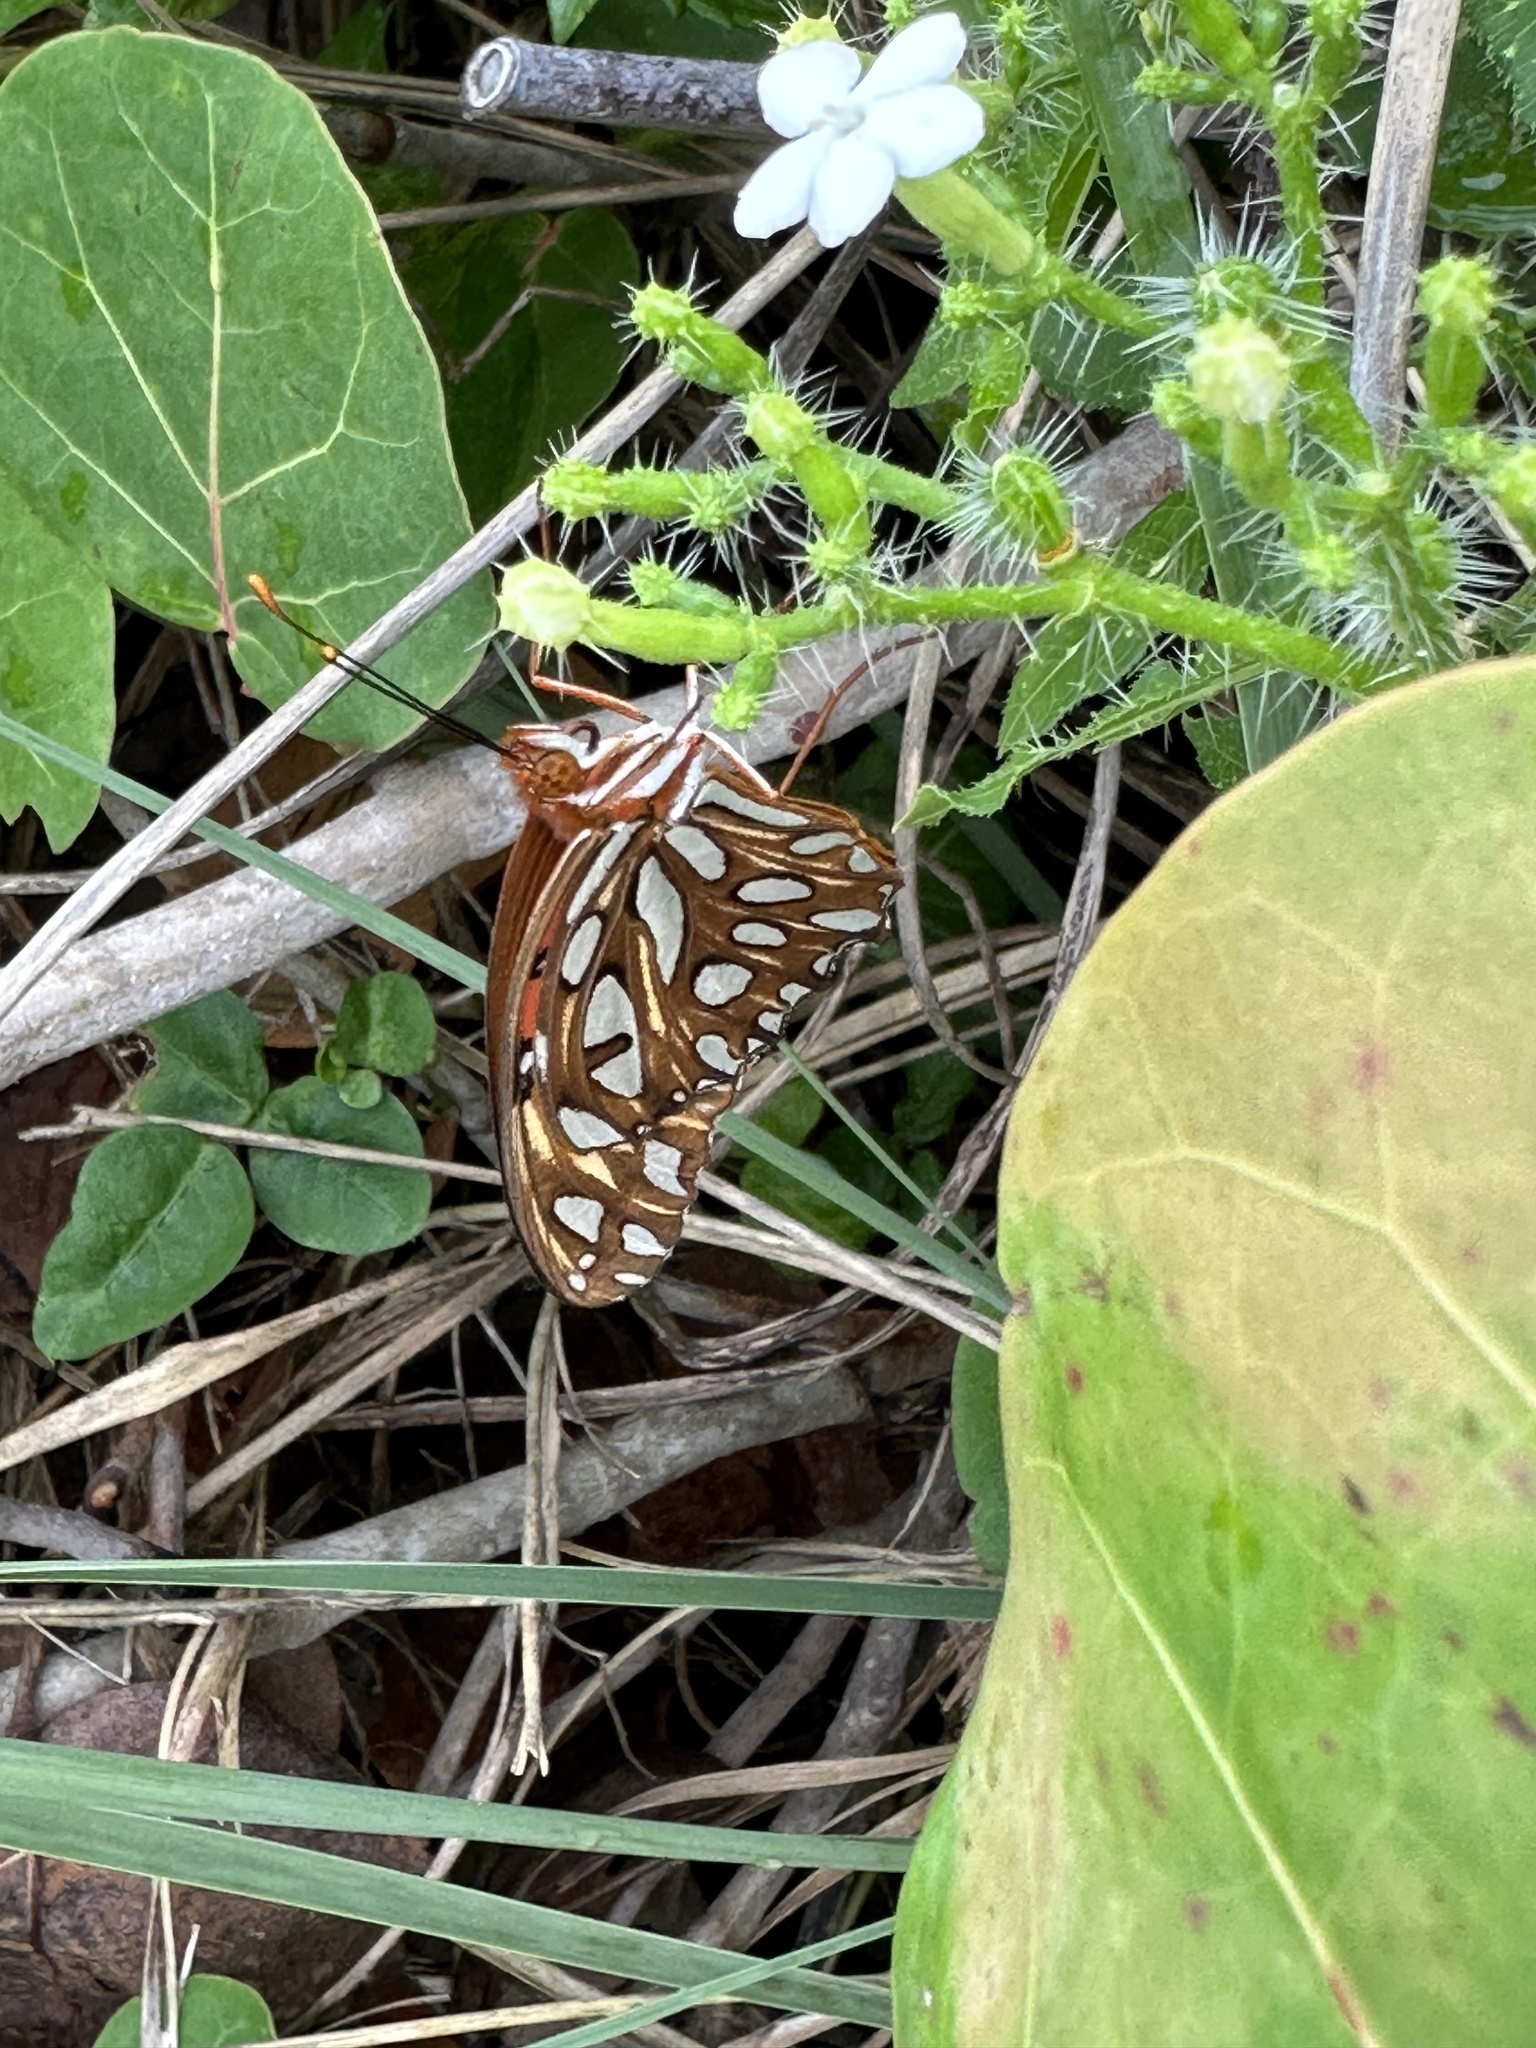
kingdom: Animalia
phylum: Arthropoda
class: Insecta
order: Lepidoptera
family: Nymphalidae
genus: Dione
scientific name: Dione vanillae
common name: Gulf fritillary
